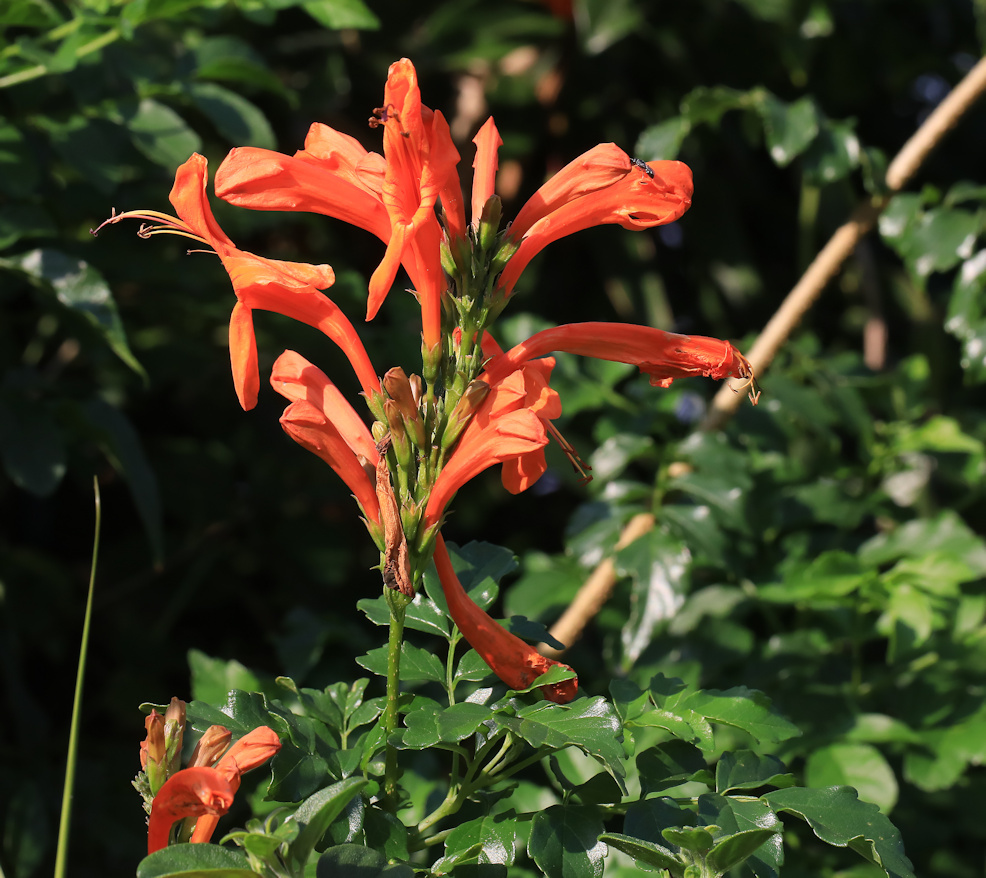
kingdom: Plantae
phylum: Tracheophyta
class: Magnoliopsida
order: Lamiales
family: Bignoniaceae
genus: Tecomaria
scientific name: Tecomaria capensis
